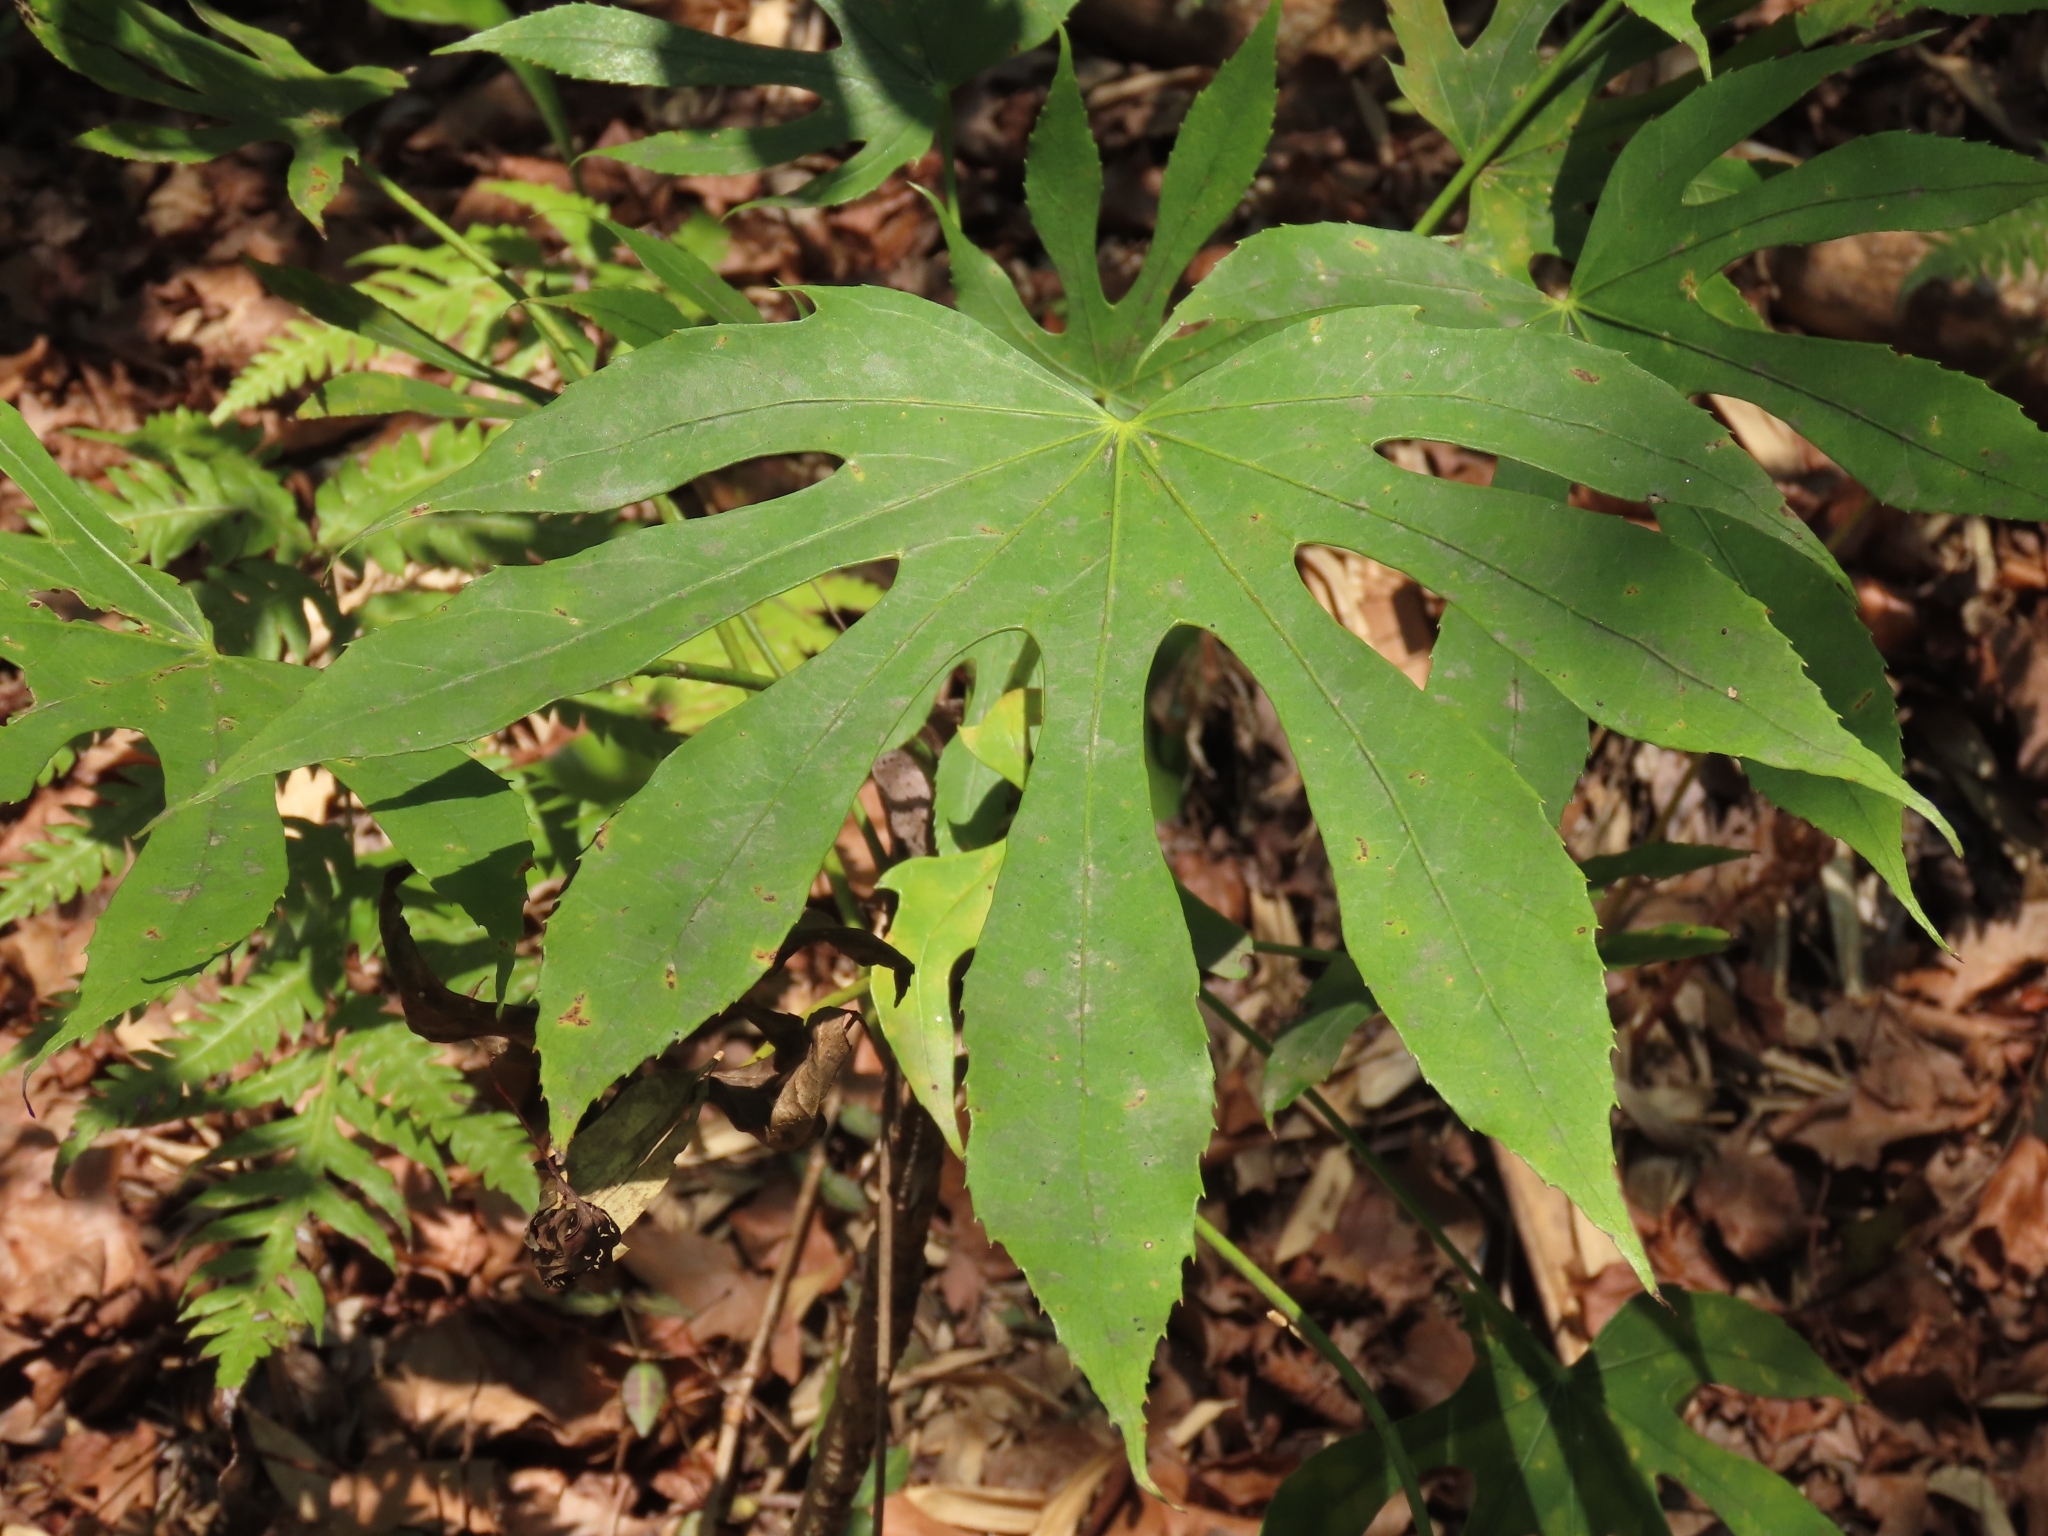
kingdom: Plantae
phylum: Tracheophyta
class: Magnoliopsida
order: Apiales
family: Araliaceae
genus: Fatsia
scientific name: Fatsia polycarpa
